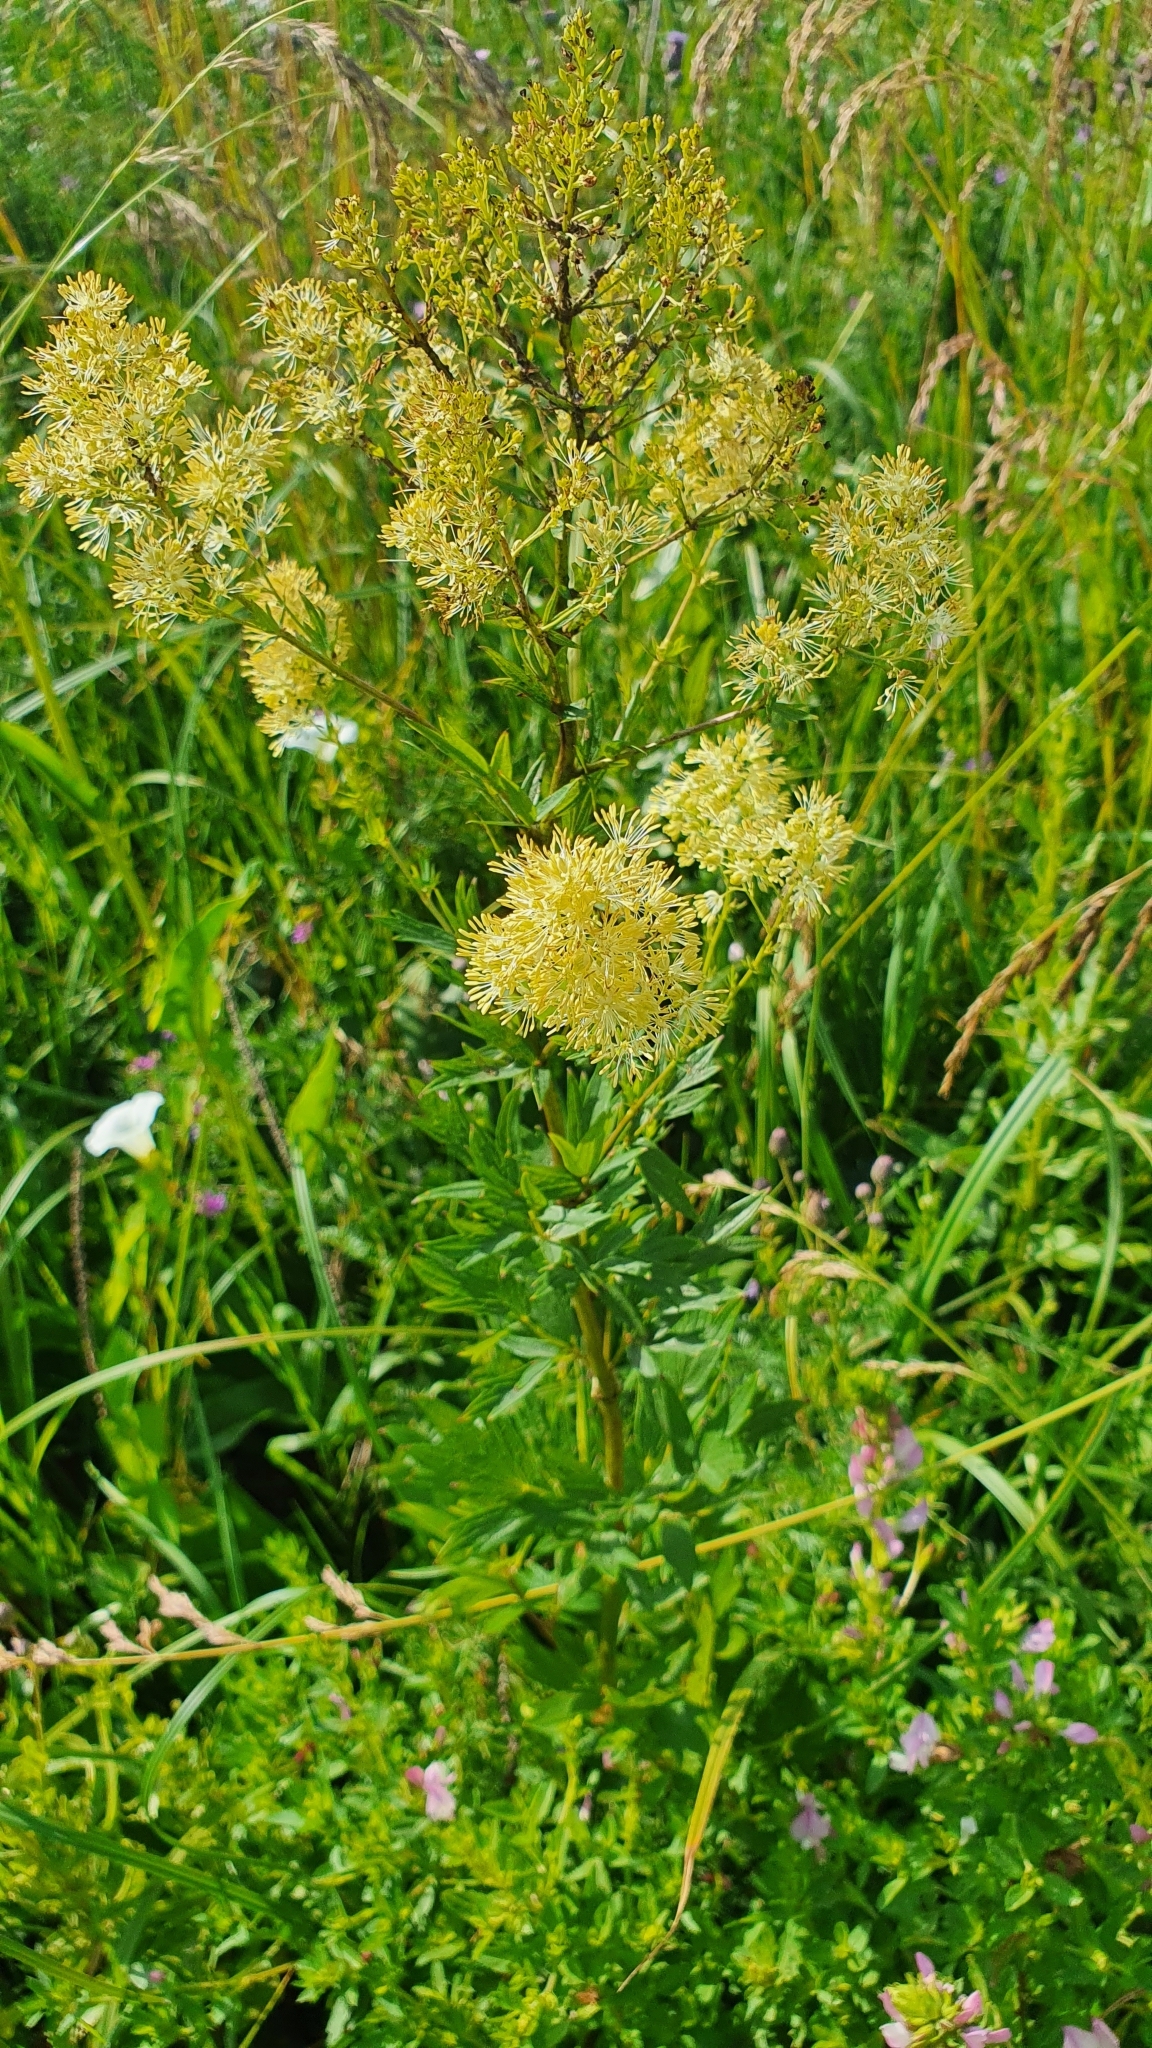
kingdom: Plantae
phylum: Tracheophyta
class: Magnoliopsida
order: Ranunculales
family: Ranunculaceae
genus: Thalictrum
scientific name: Thalictrum flavum
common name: Common meadow-rue
